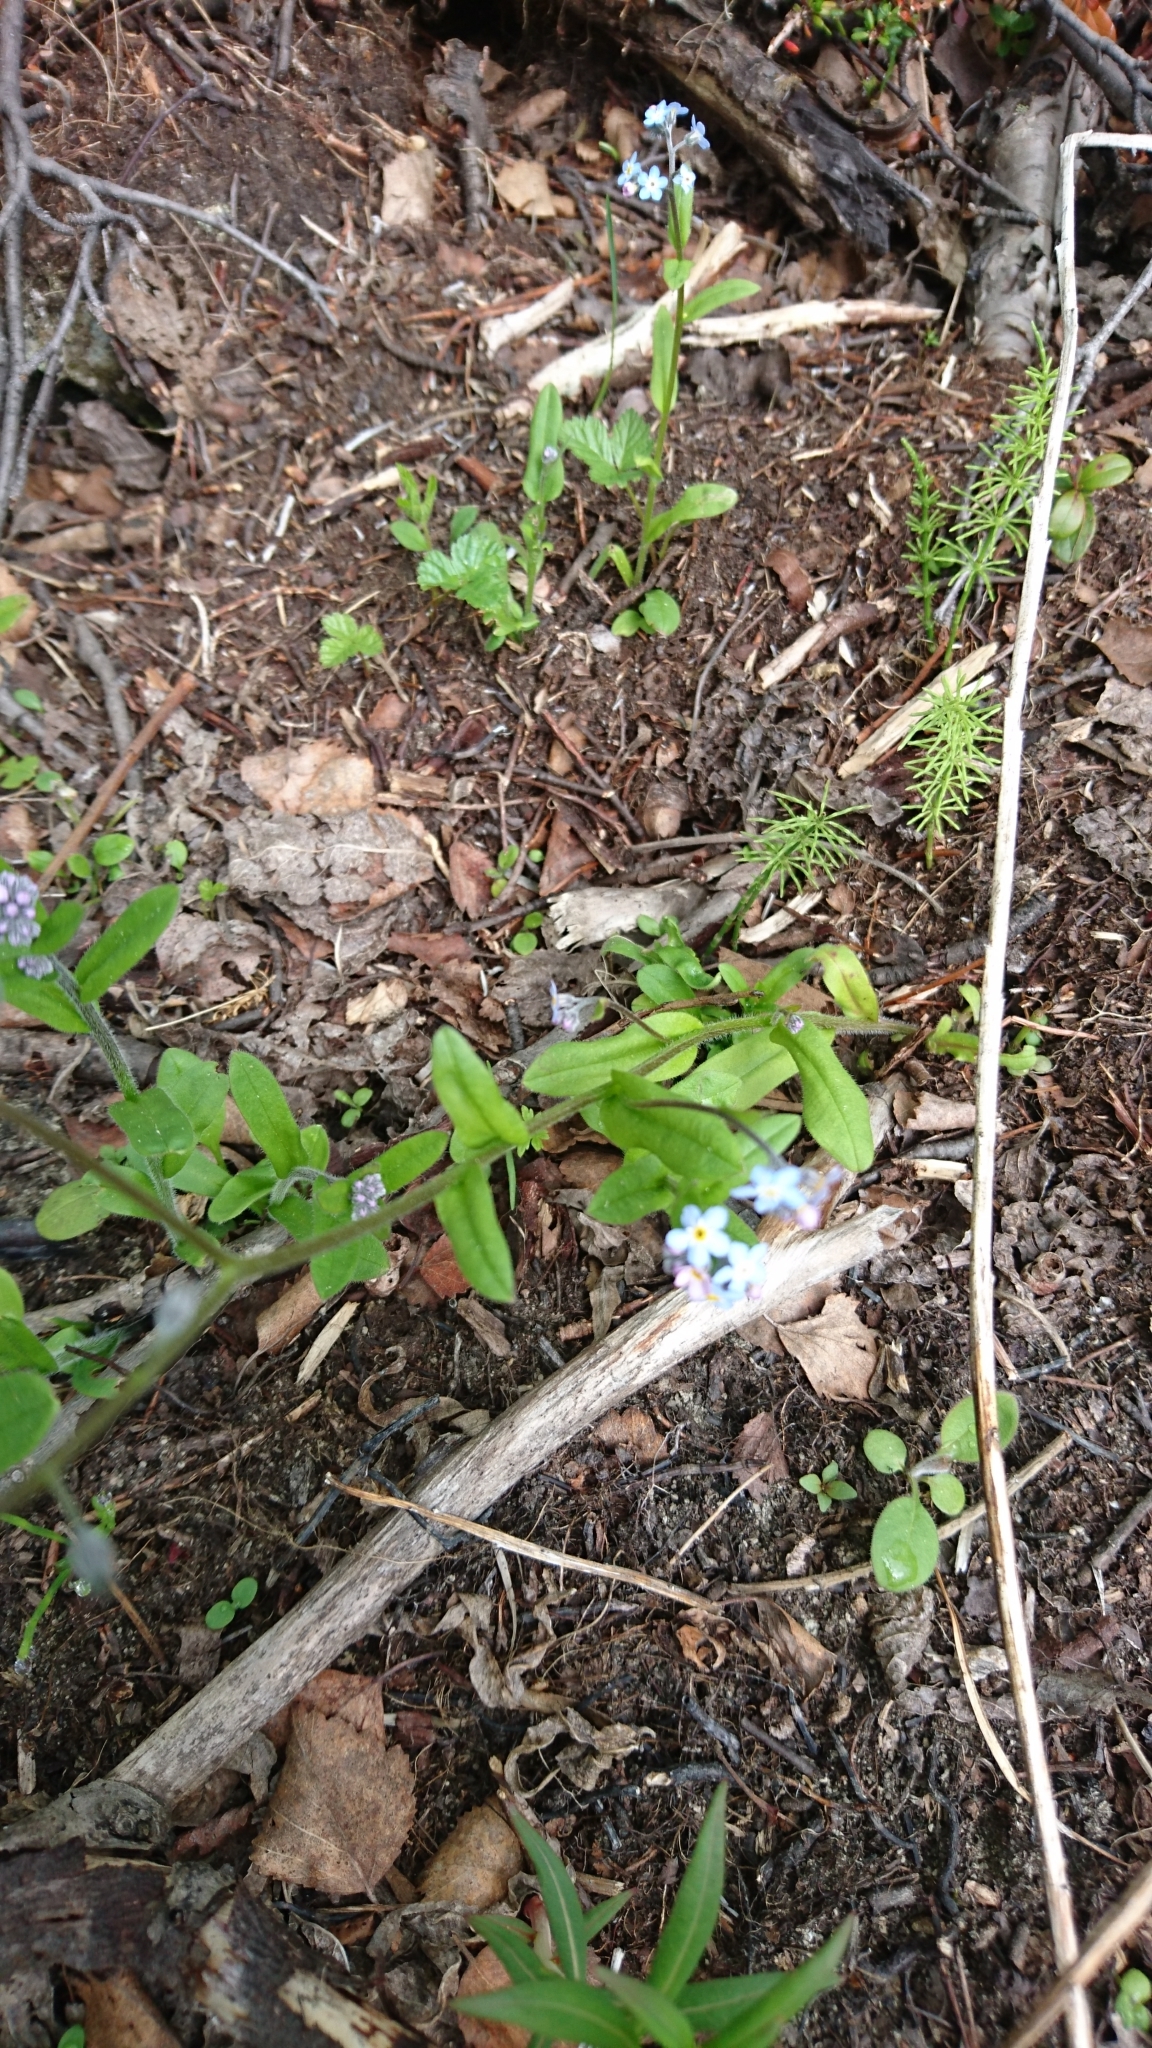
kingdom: Plantae
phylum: Tracheophyta
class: Magnoliopsida
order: Boraginales
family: Boraginaceae
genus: Myosotis
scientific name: Myosotis decumbens
